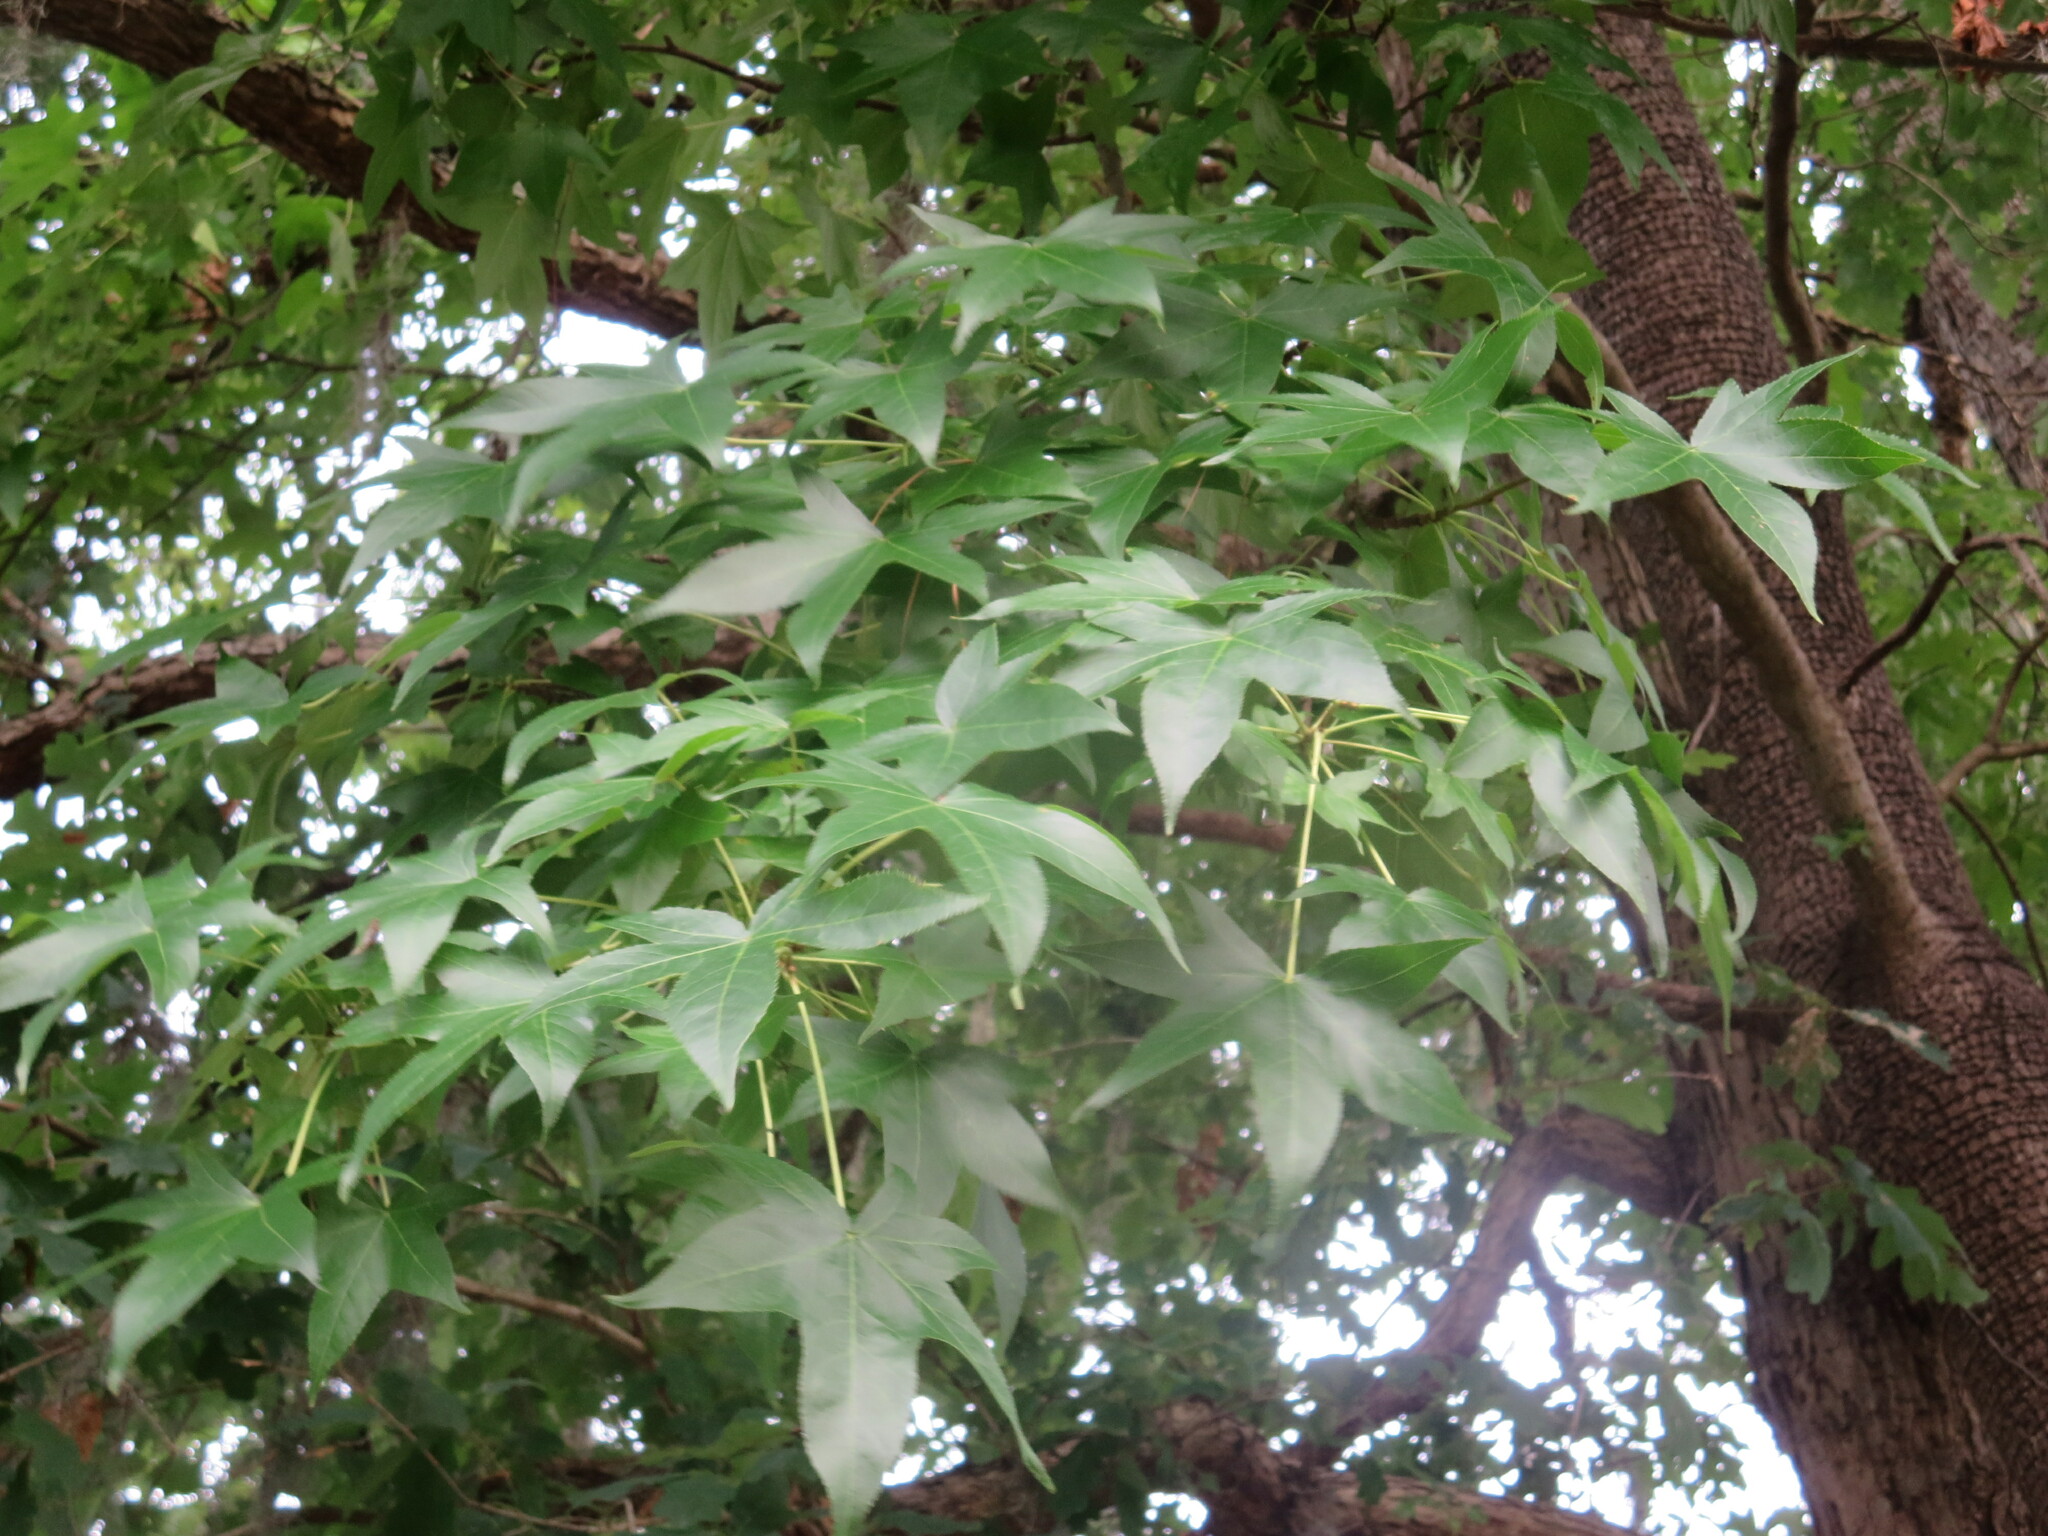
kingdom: Plantae
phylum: Tracheophyta
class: Magnoliopsida
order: Saxifragales
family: Altingiaceae
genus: Liquidambar
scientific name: Liquidambar styraciflua
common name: Sweet gum
